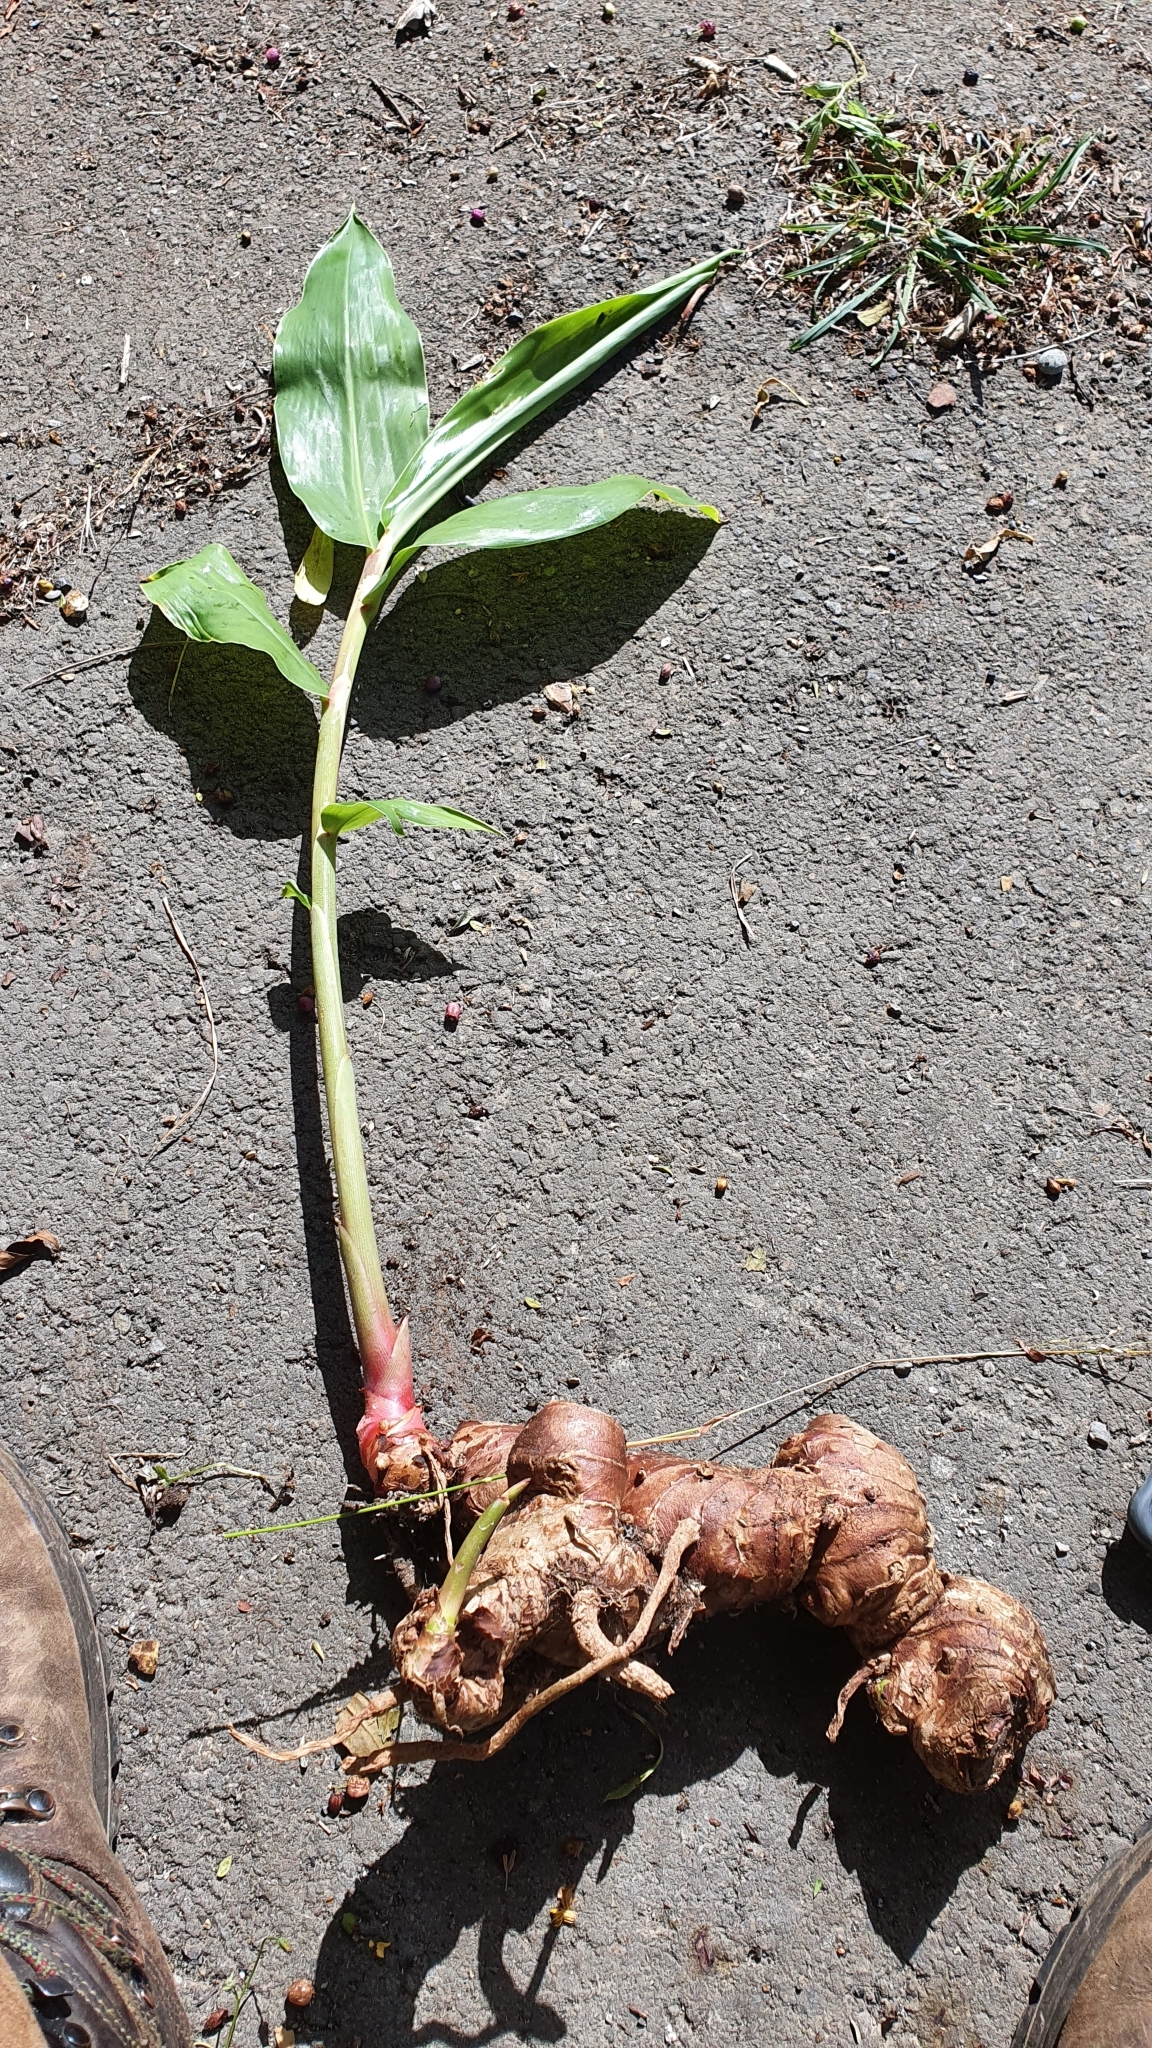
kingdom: Plantae
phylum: Tracheophyta
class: Liliopsida
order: Zingiberales
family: Zingiberaceae
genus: Hedychium
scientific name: Hedychium gardnerianum
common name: Himalayan ginger
